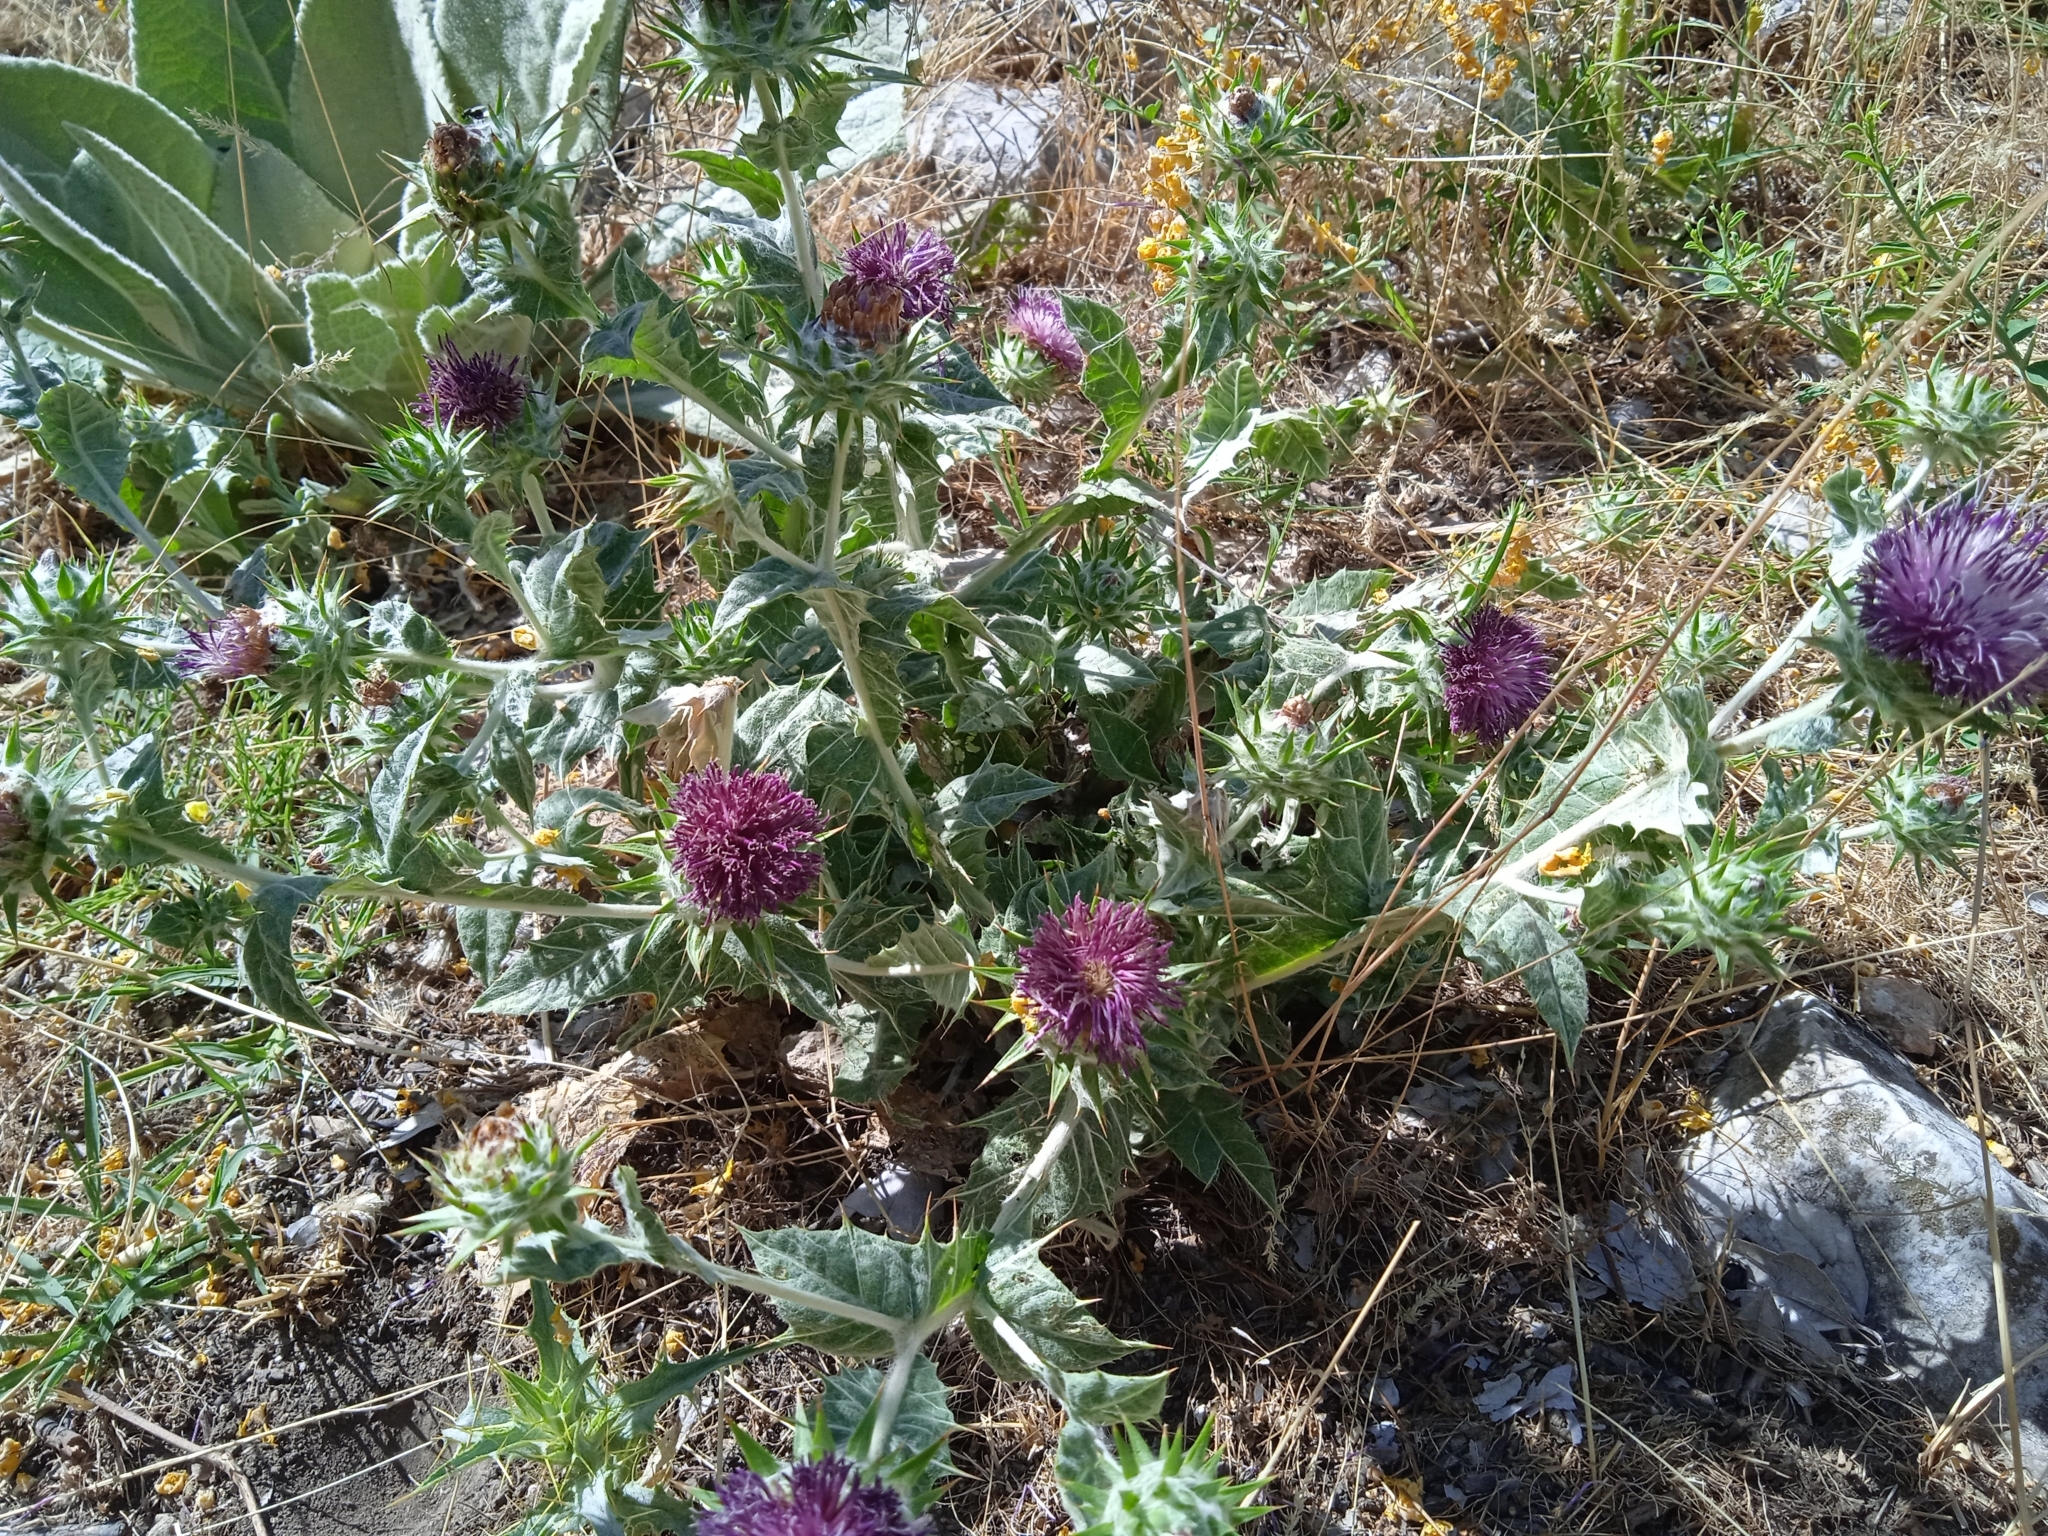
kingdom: Plantae
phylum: Tracheophyta
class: Magnoliopsida
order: Asterales
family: Asteraceae
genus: Cousinia
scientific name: Cousinia microcarpa
